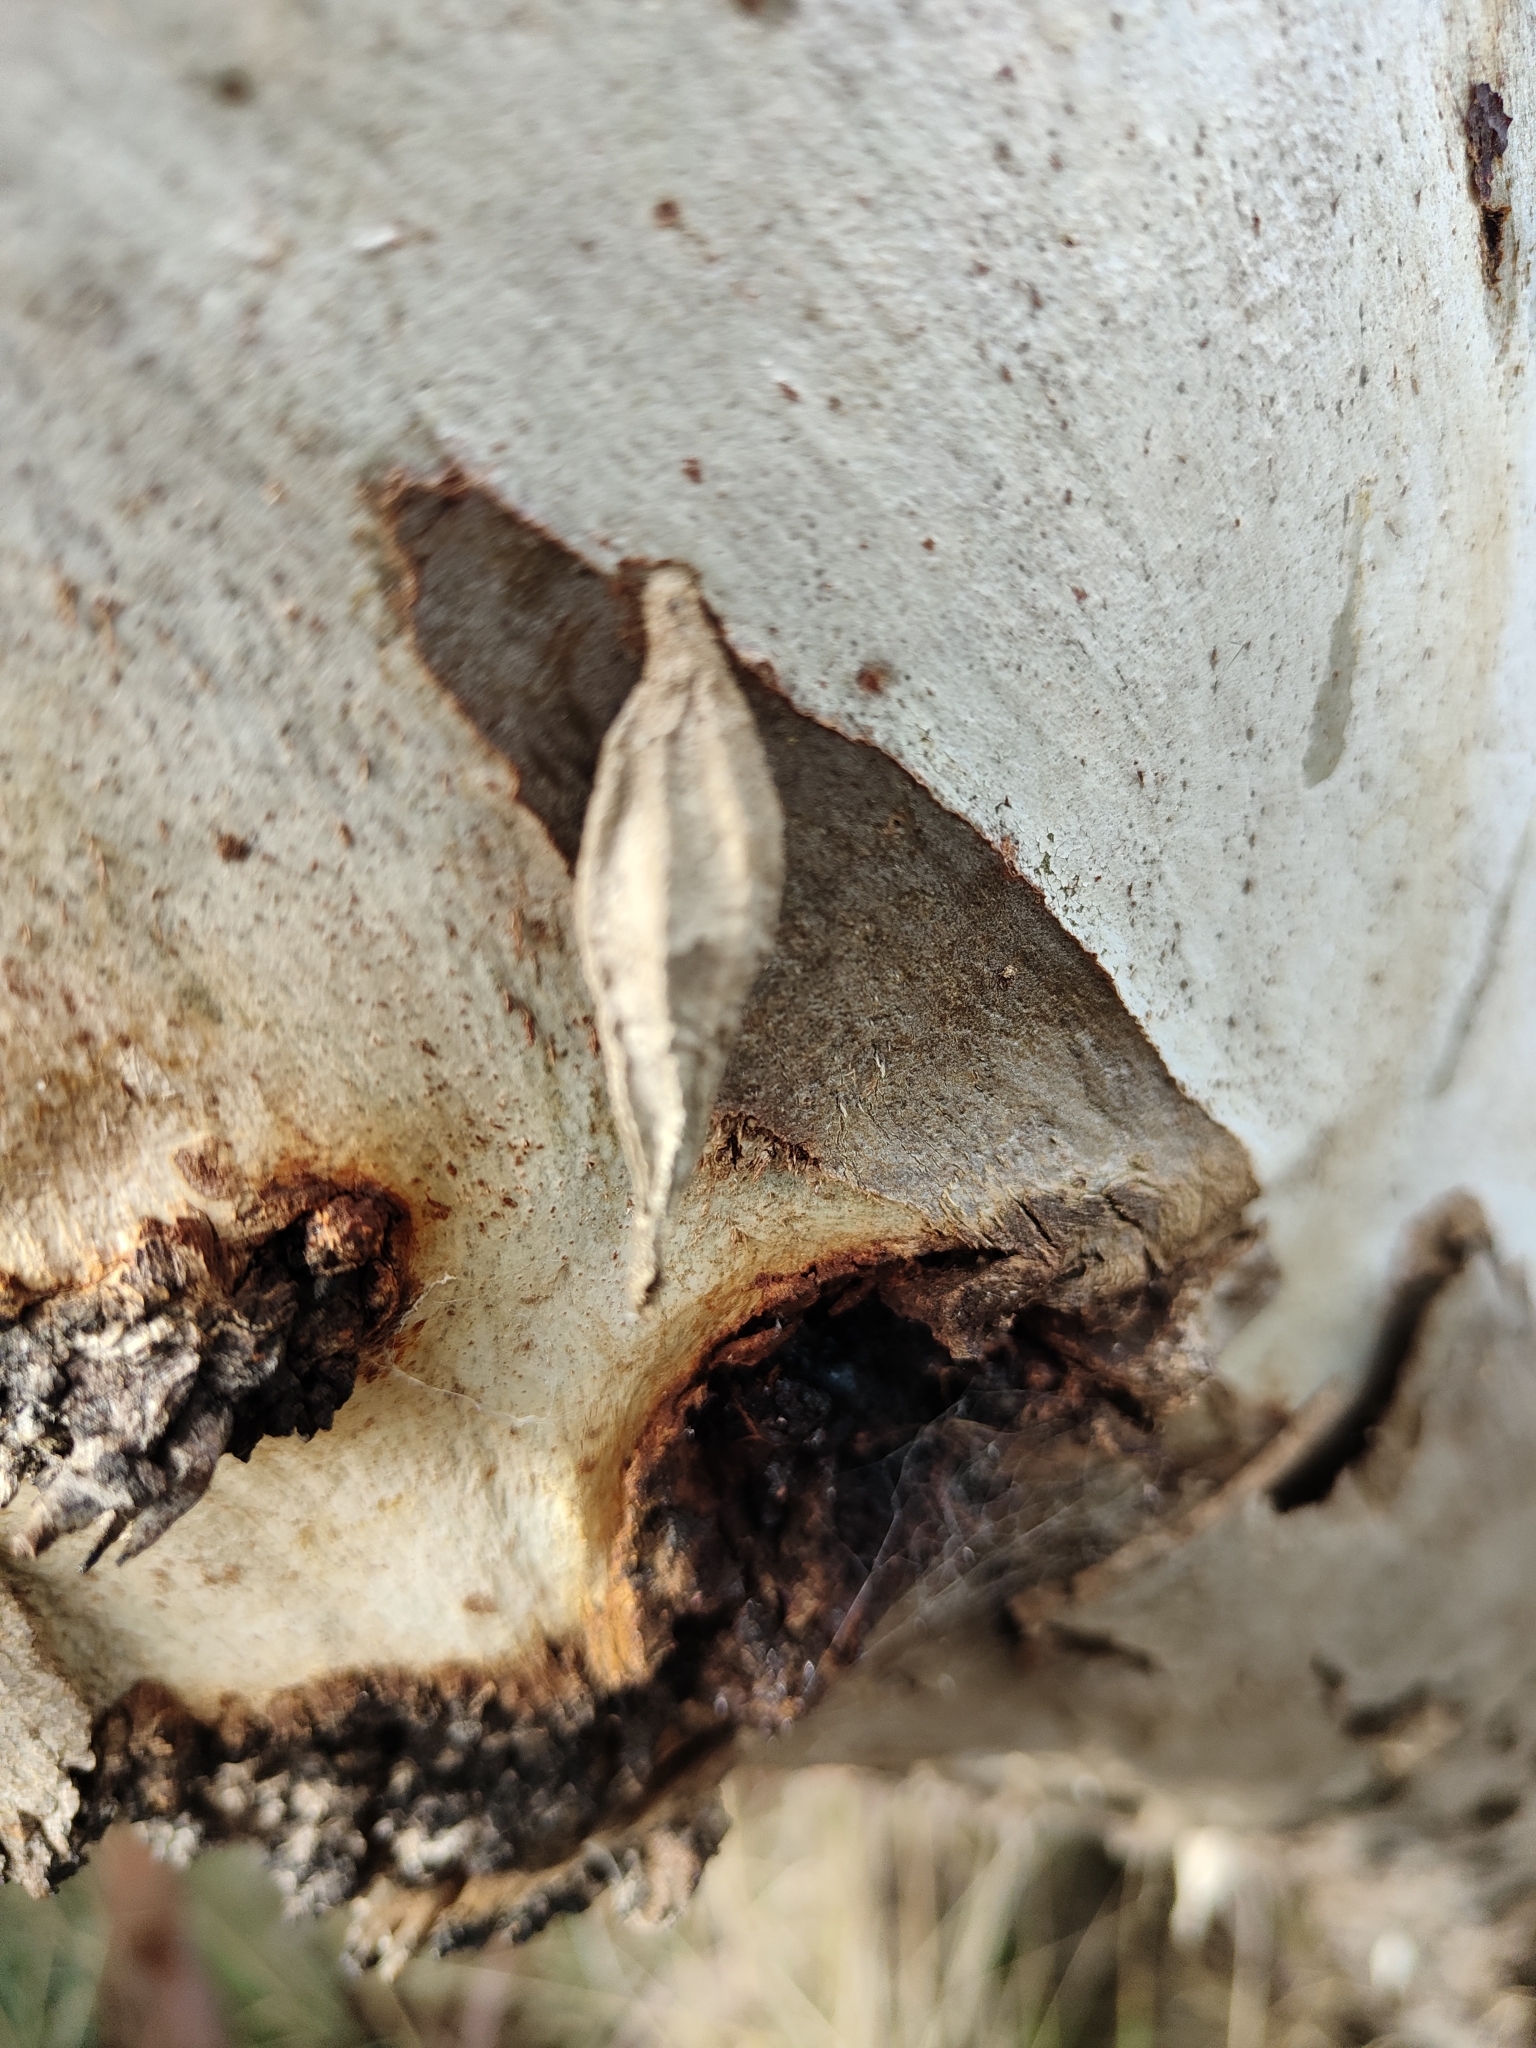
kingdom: Animalia
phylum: Arthropoda
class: Insecta
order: Lepidoptera
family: Psychidae
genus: Hyalarcta
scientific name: Hyalarcta nigrescens
